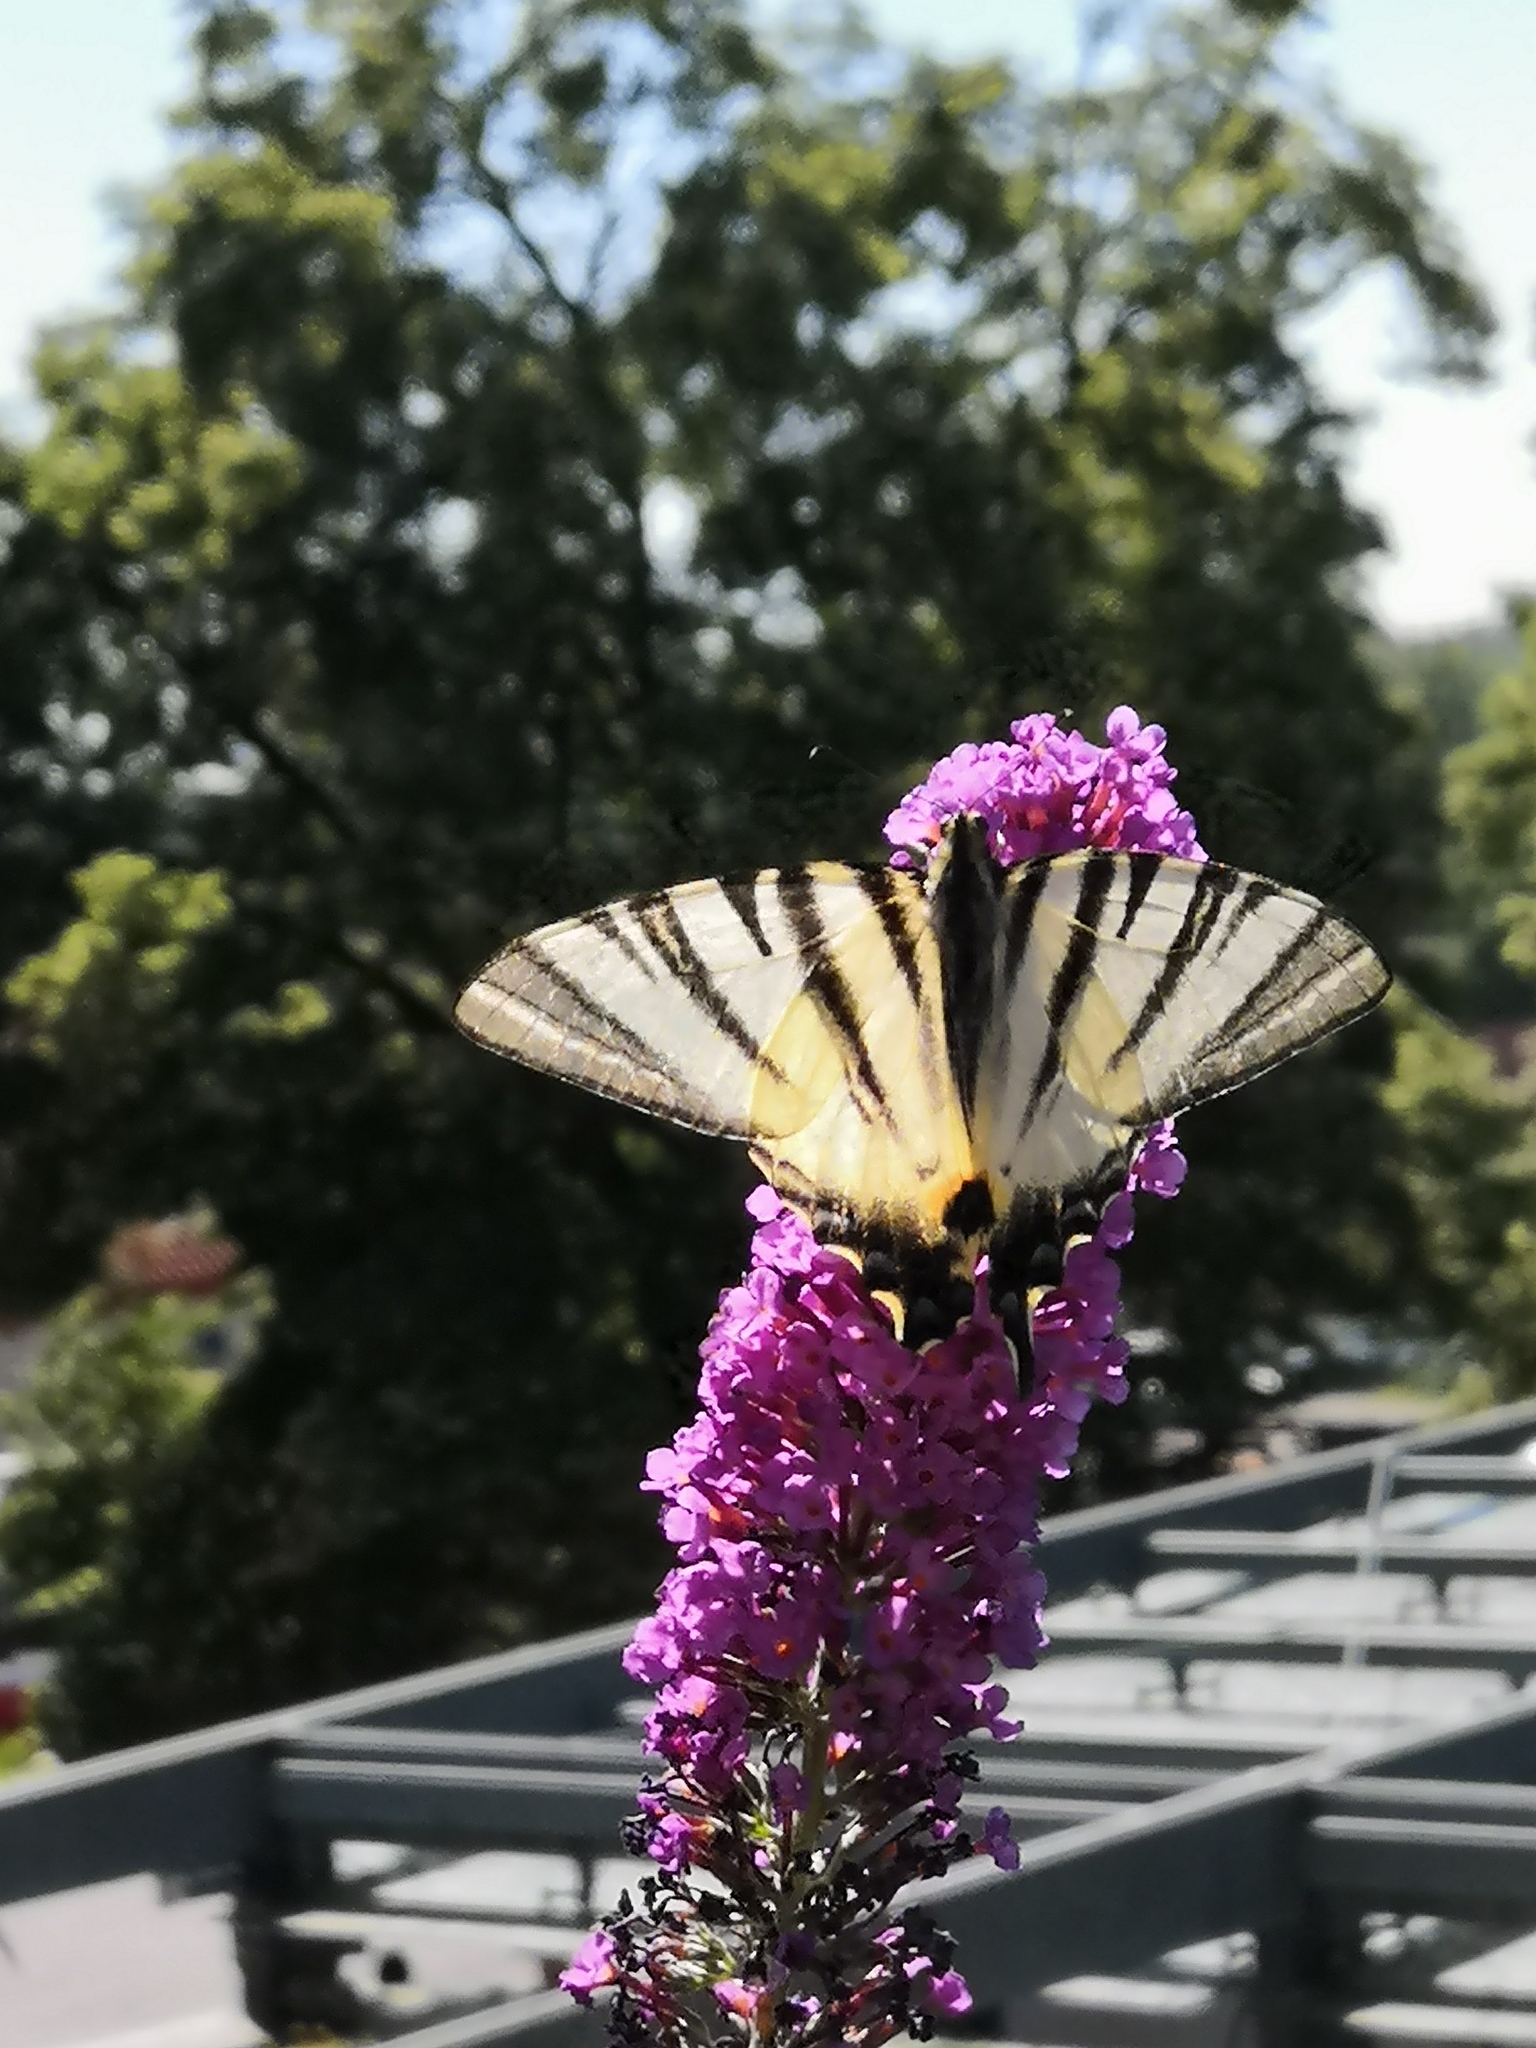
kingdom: Animalia
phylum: Arthropoda
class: Insecta
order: Lepidoptera
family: Papilionidae
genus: Iphiclides
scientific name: Iphiclides podalirius
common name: Scarce swallowtail
